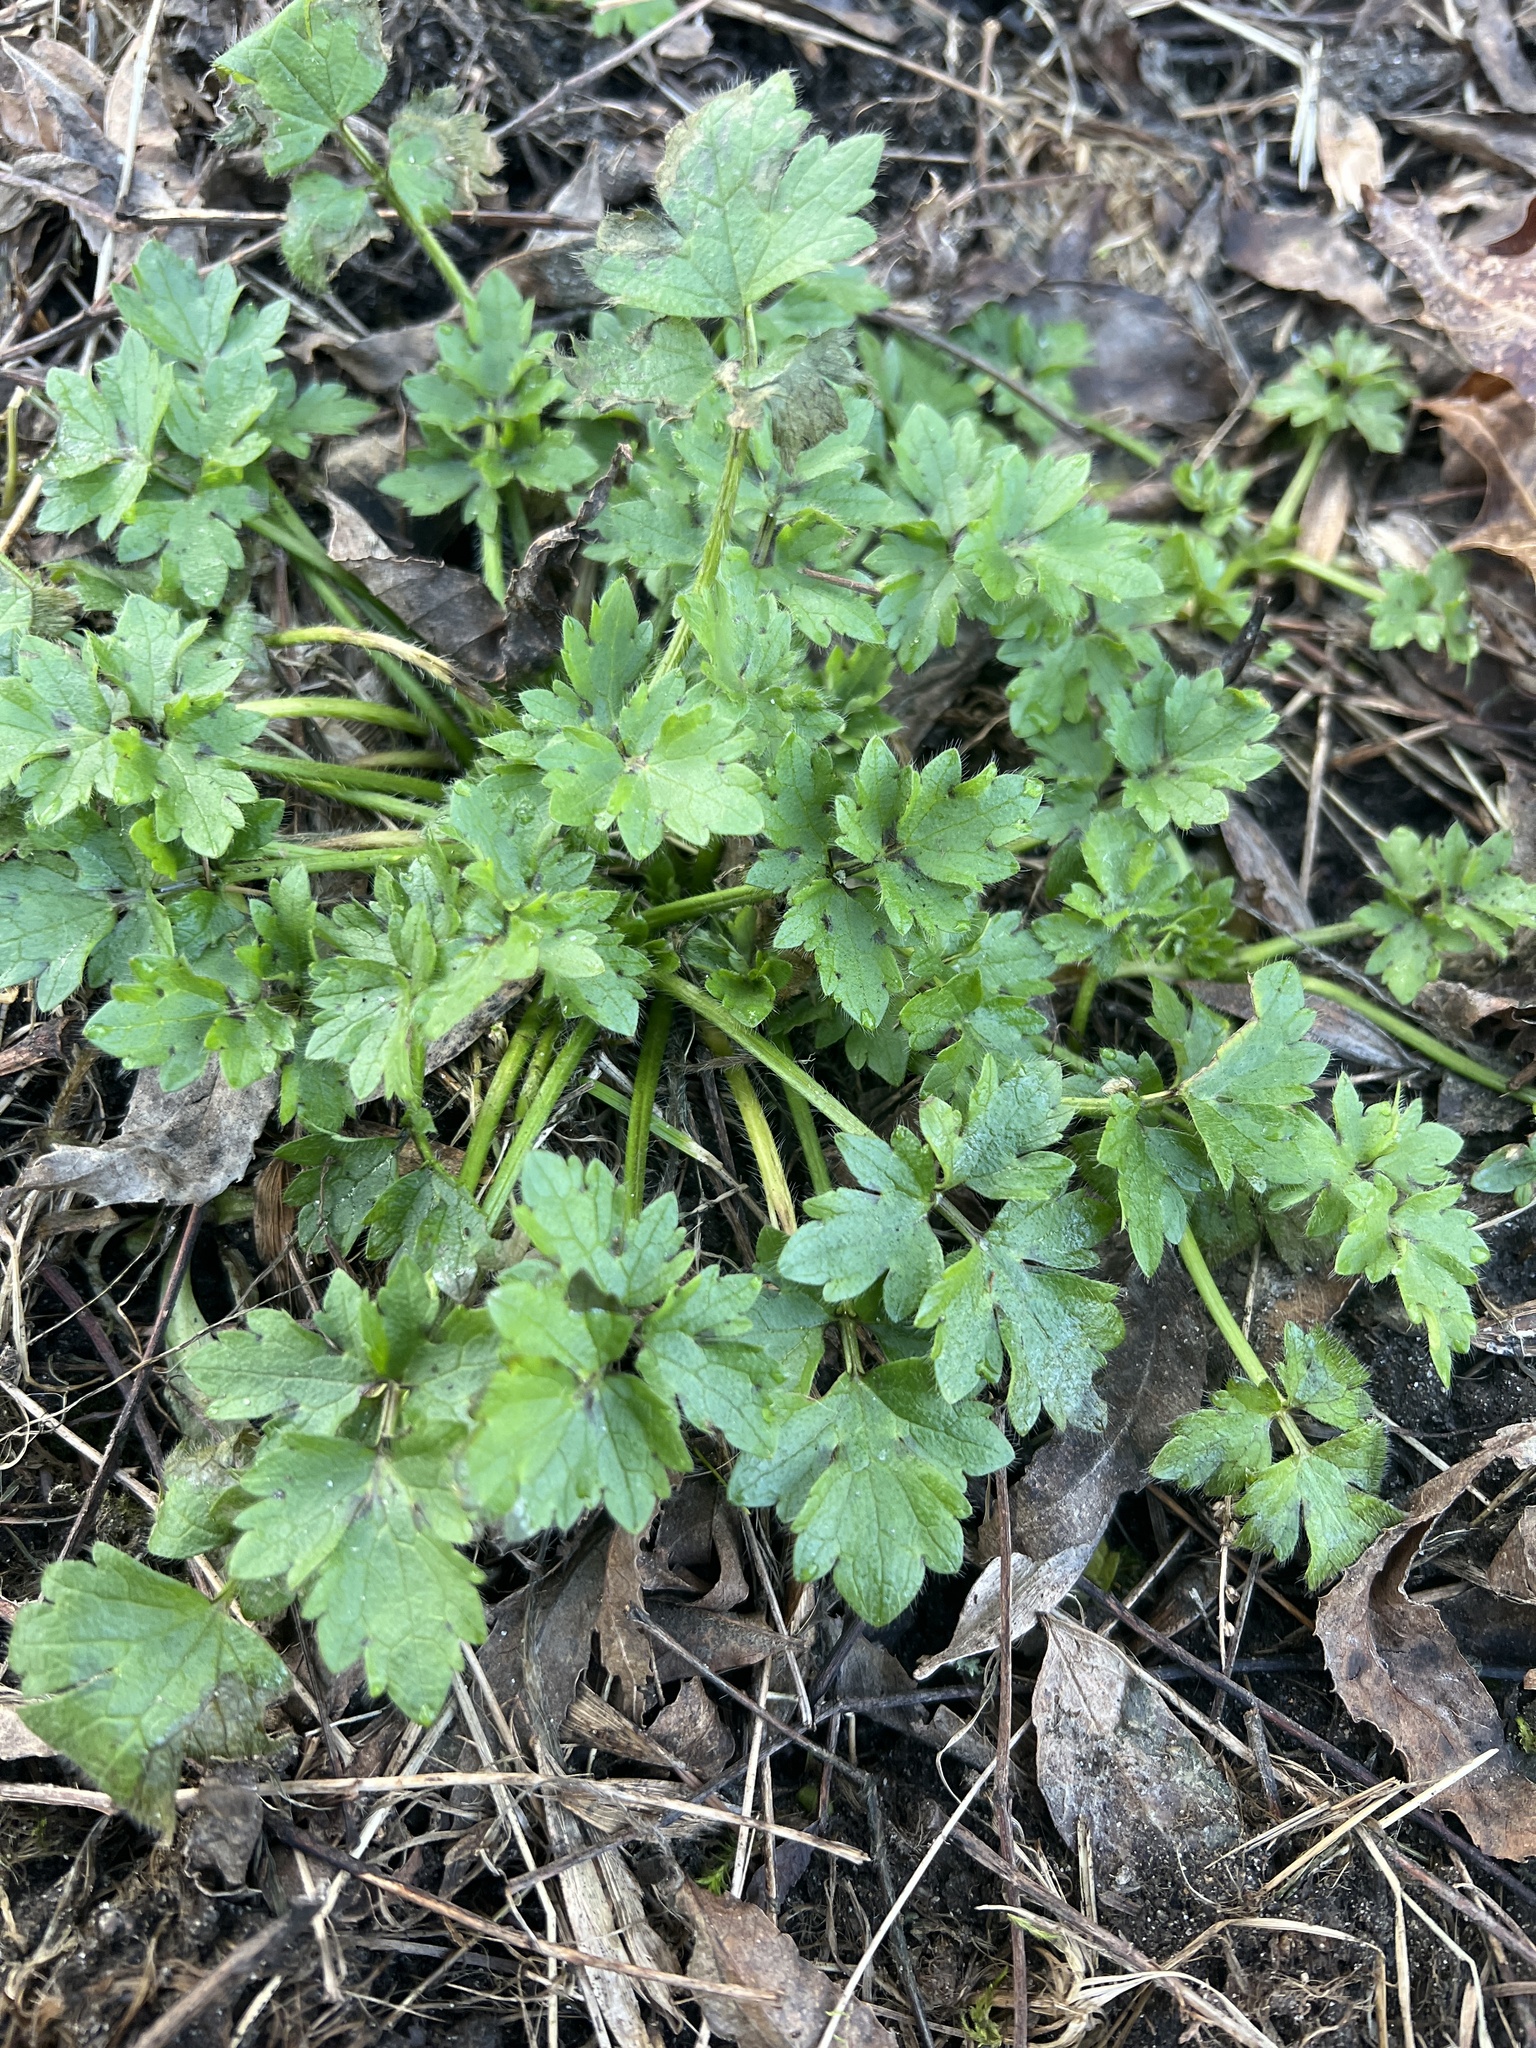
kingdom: Plantae
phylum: Tracheophyta
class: Magnoliopsida
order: Ranunculales
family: Ranunculaceae
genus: Ranunculus
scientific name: Ranunculus repens
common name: Creeping buttercup
